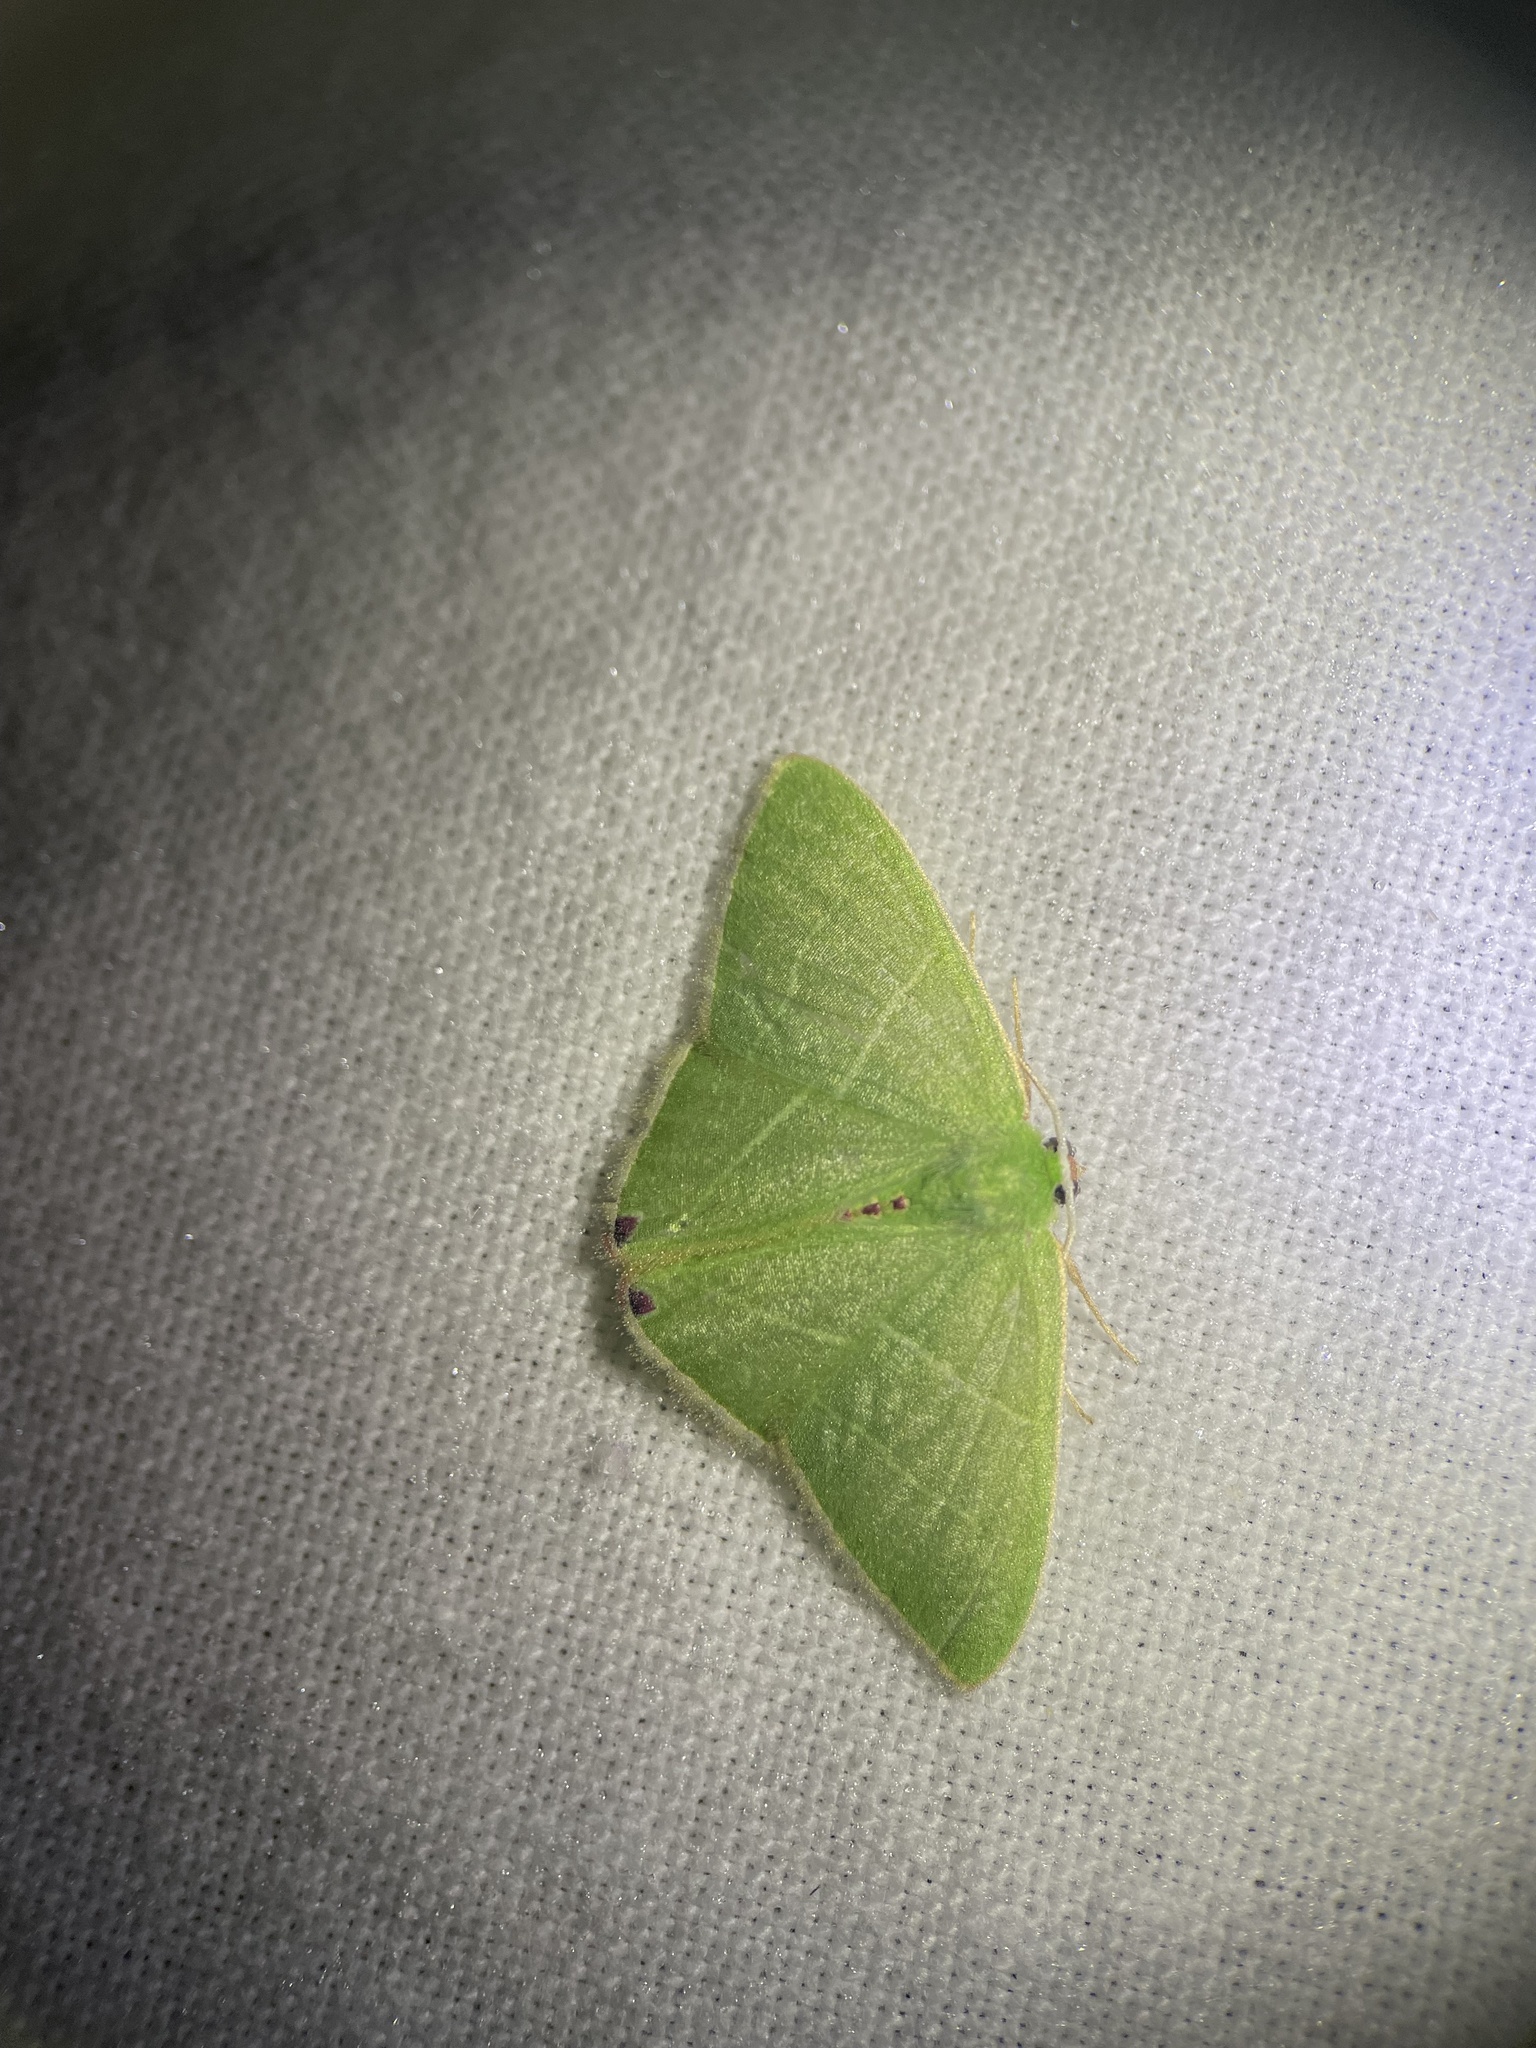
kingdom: Animalia
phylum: Arthropoda
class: Insecta
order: Lepidoptera
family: Geometridae
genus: Urolitha
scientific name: Urolitha bipunctifera
